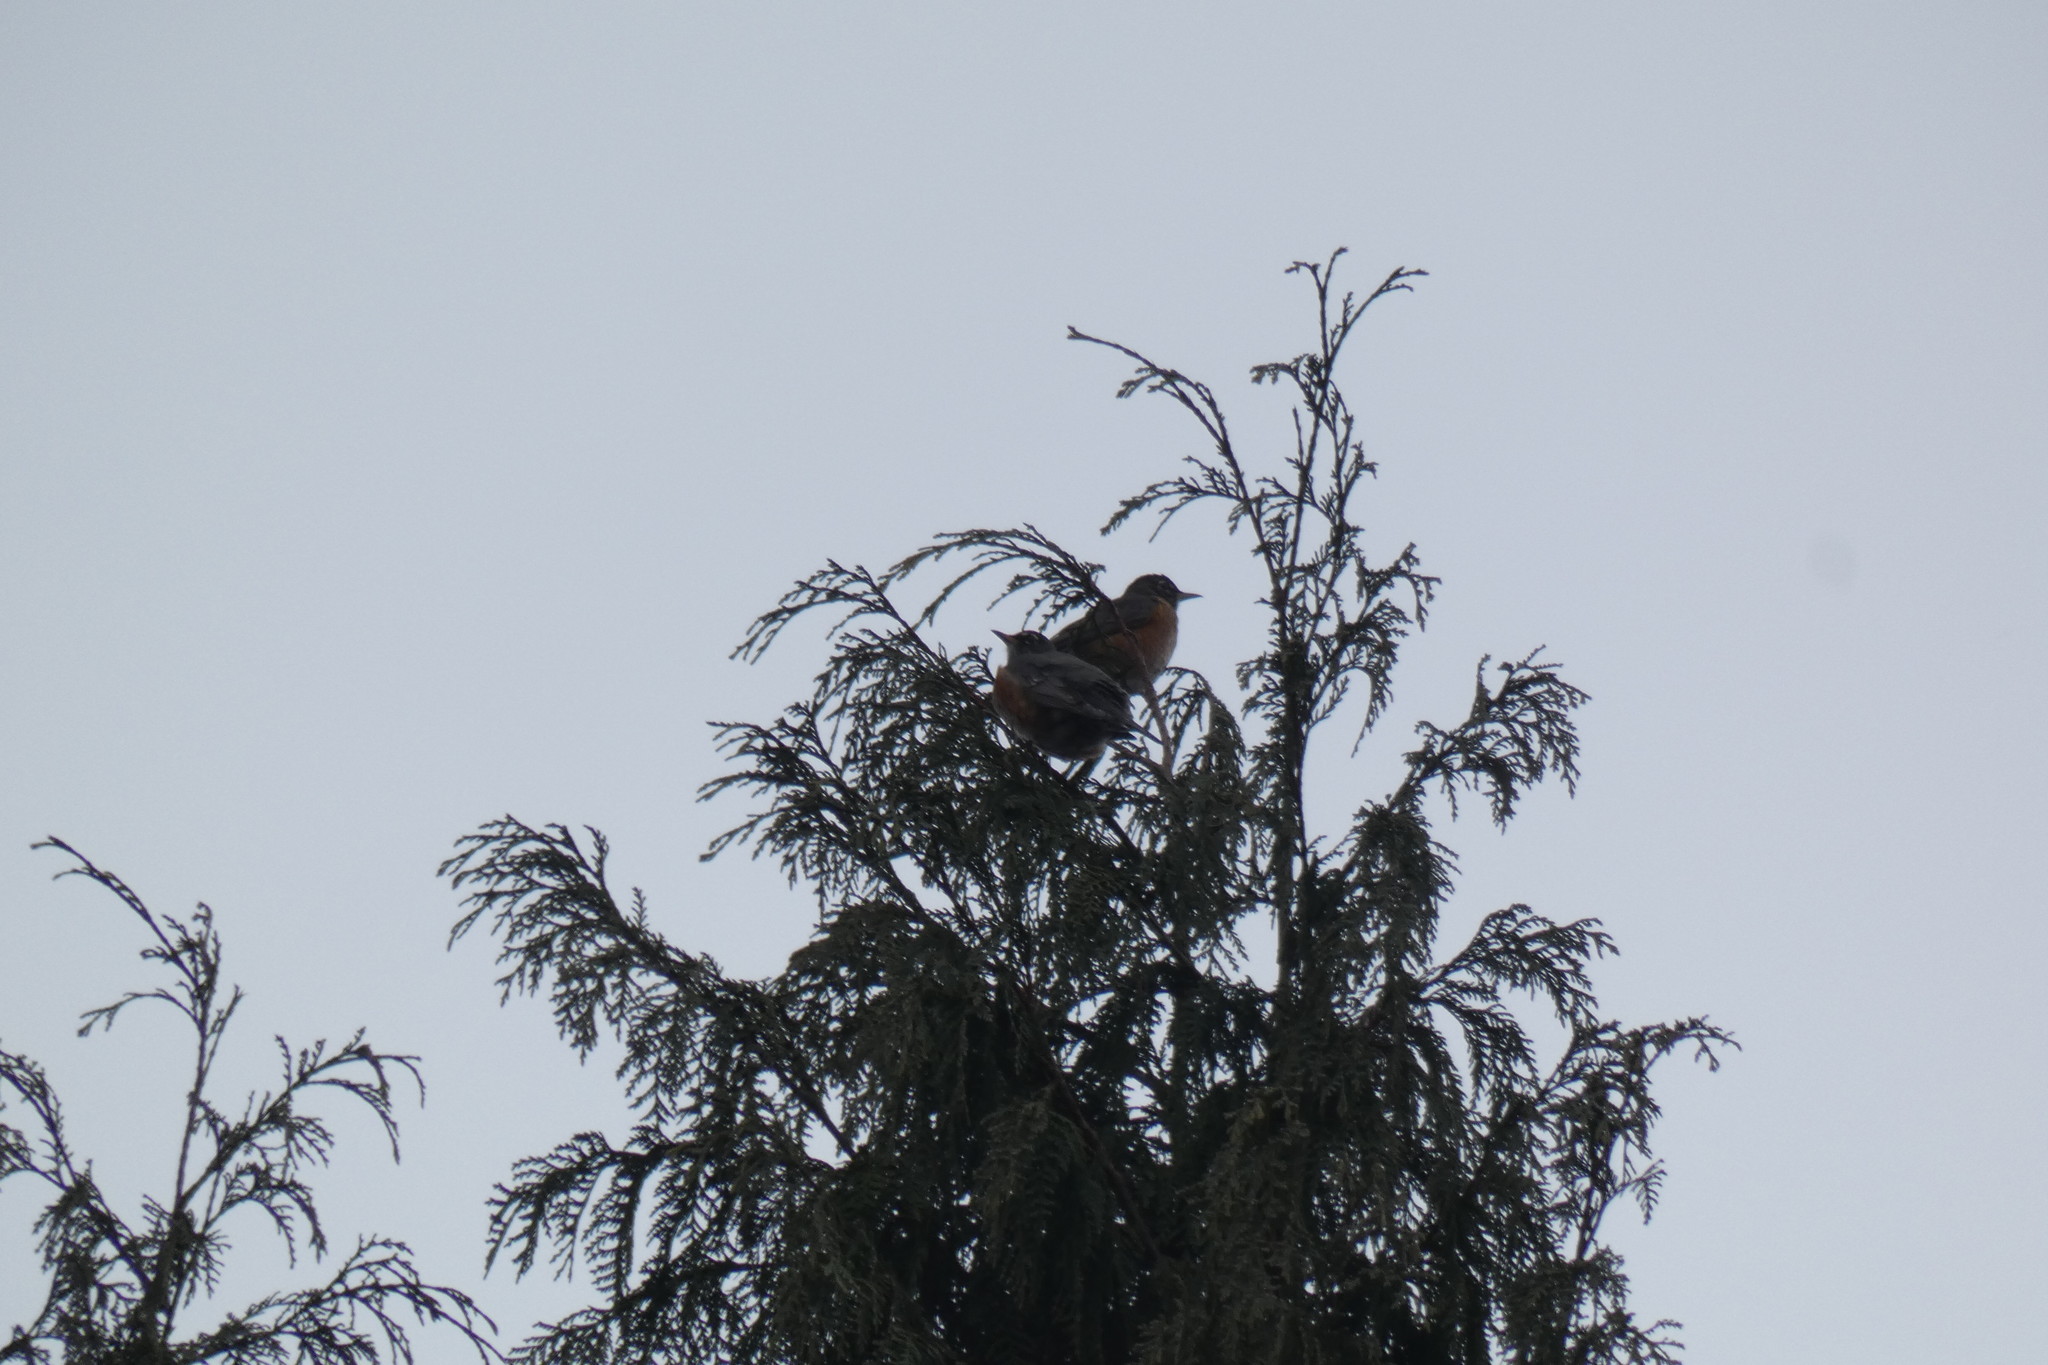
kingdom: Animalia
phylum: Chordata
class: Aves
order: Passeriformes
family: Turdidae
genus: Turdus
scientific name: Turdus migratorius
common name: American robin
